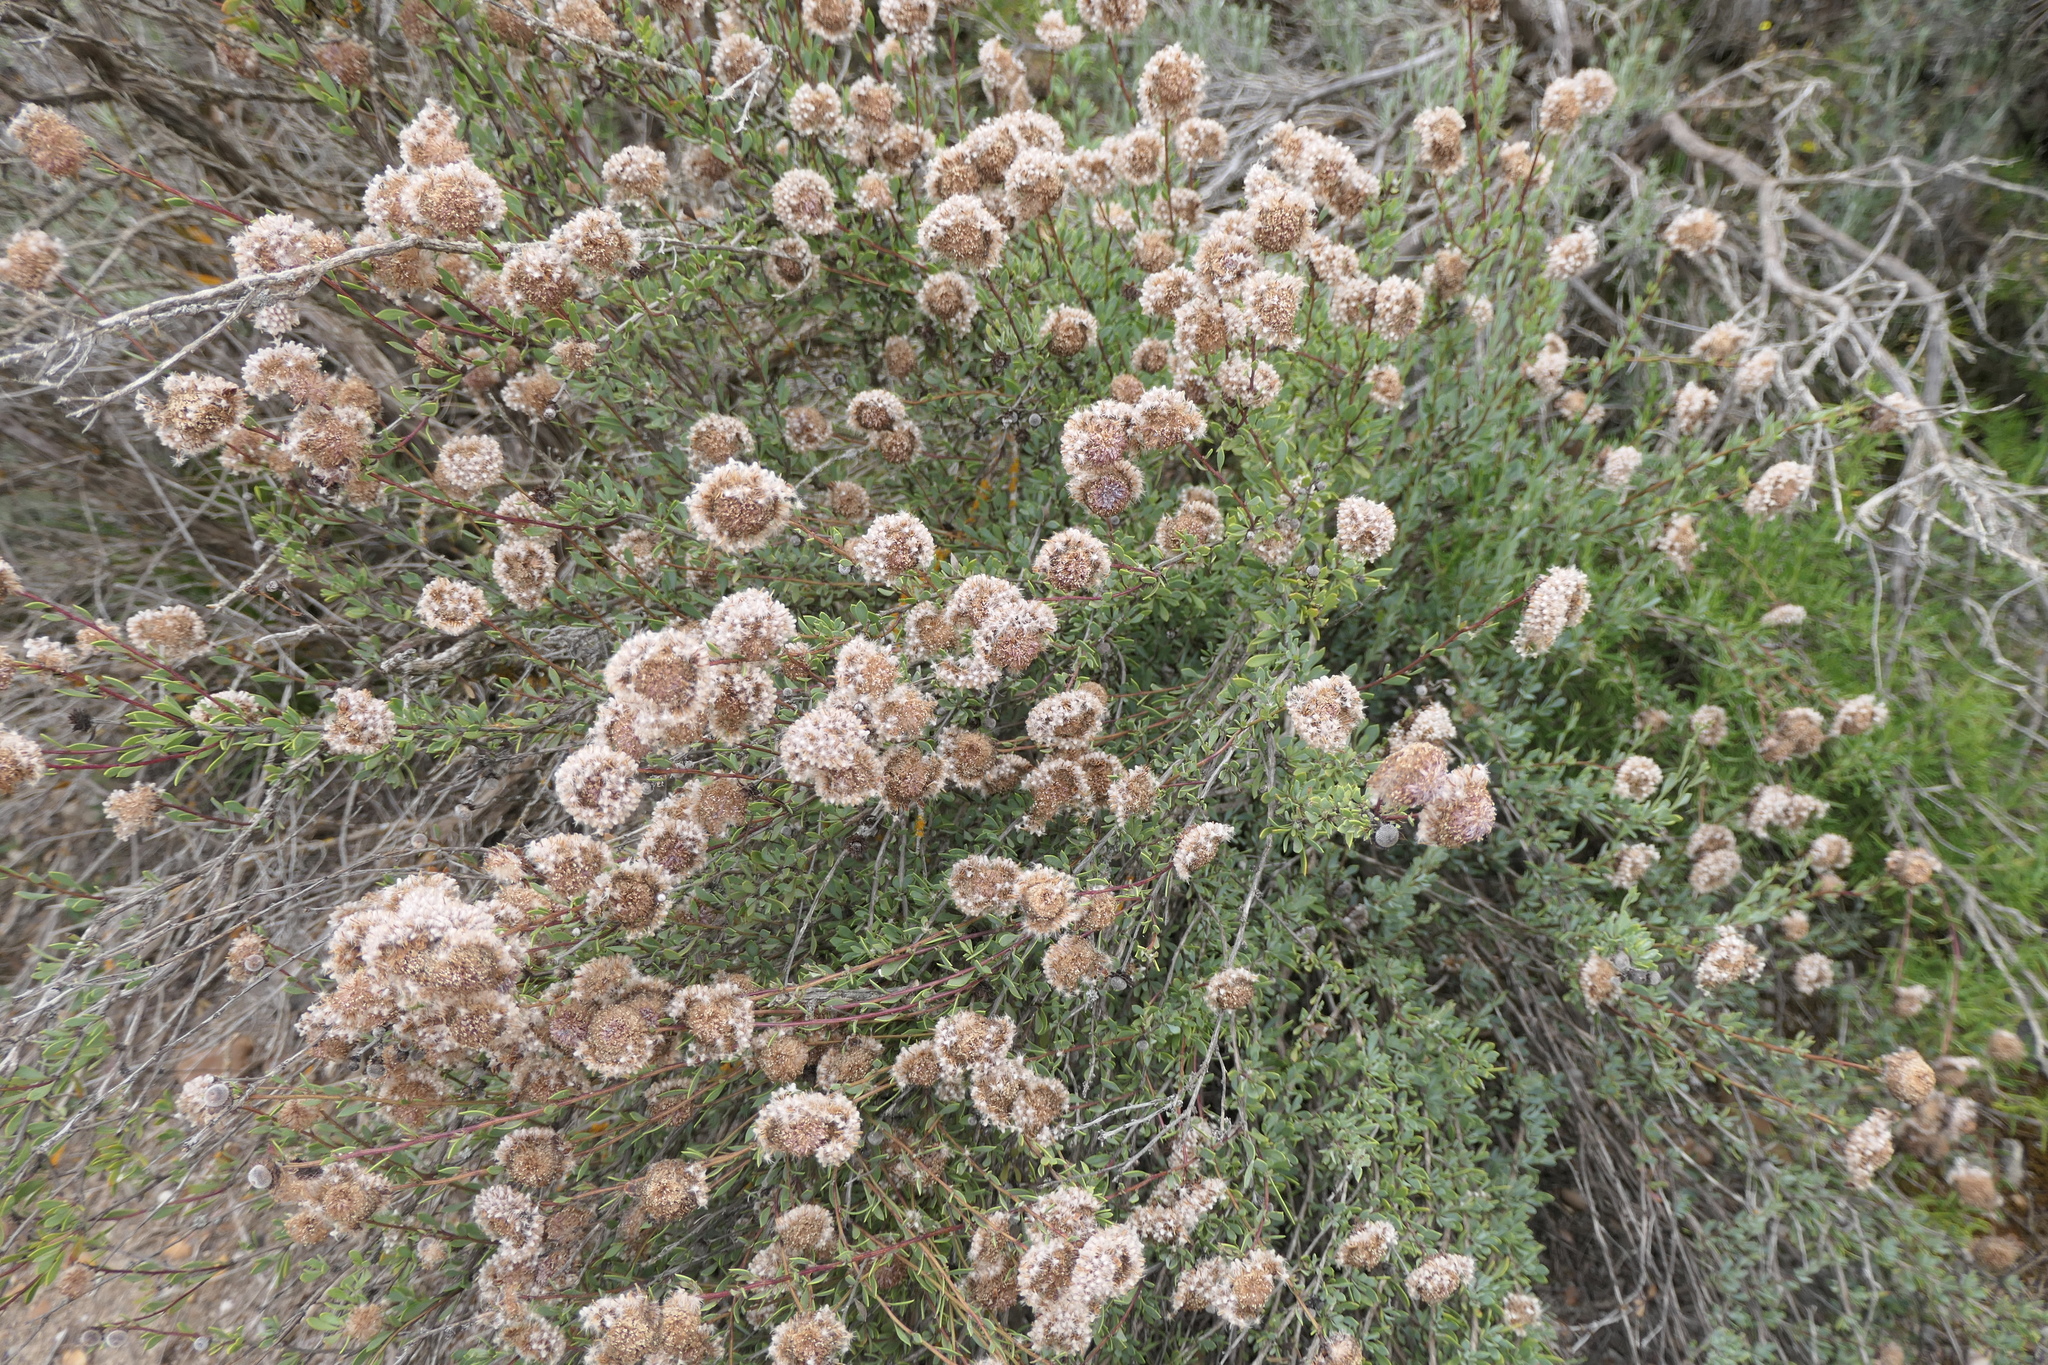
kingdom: Plantae
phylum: Tracheophyta
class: Magnoliopsida
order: Lamiales
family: Plantaginaceae
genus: Globularia
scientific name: Globularia alypum
